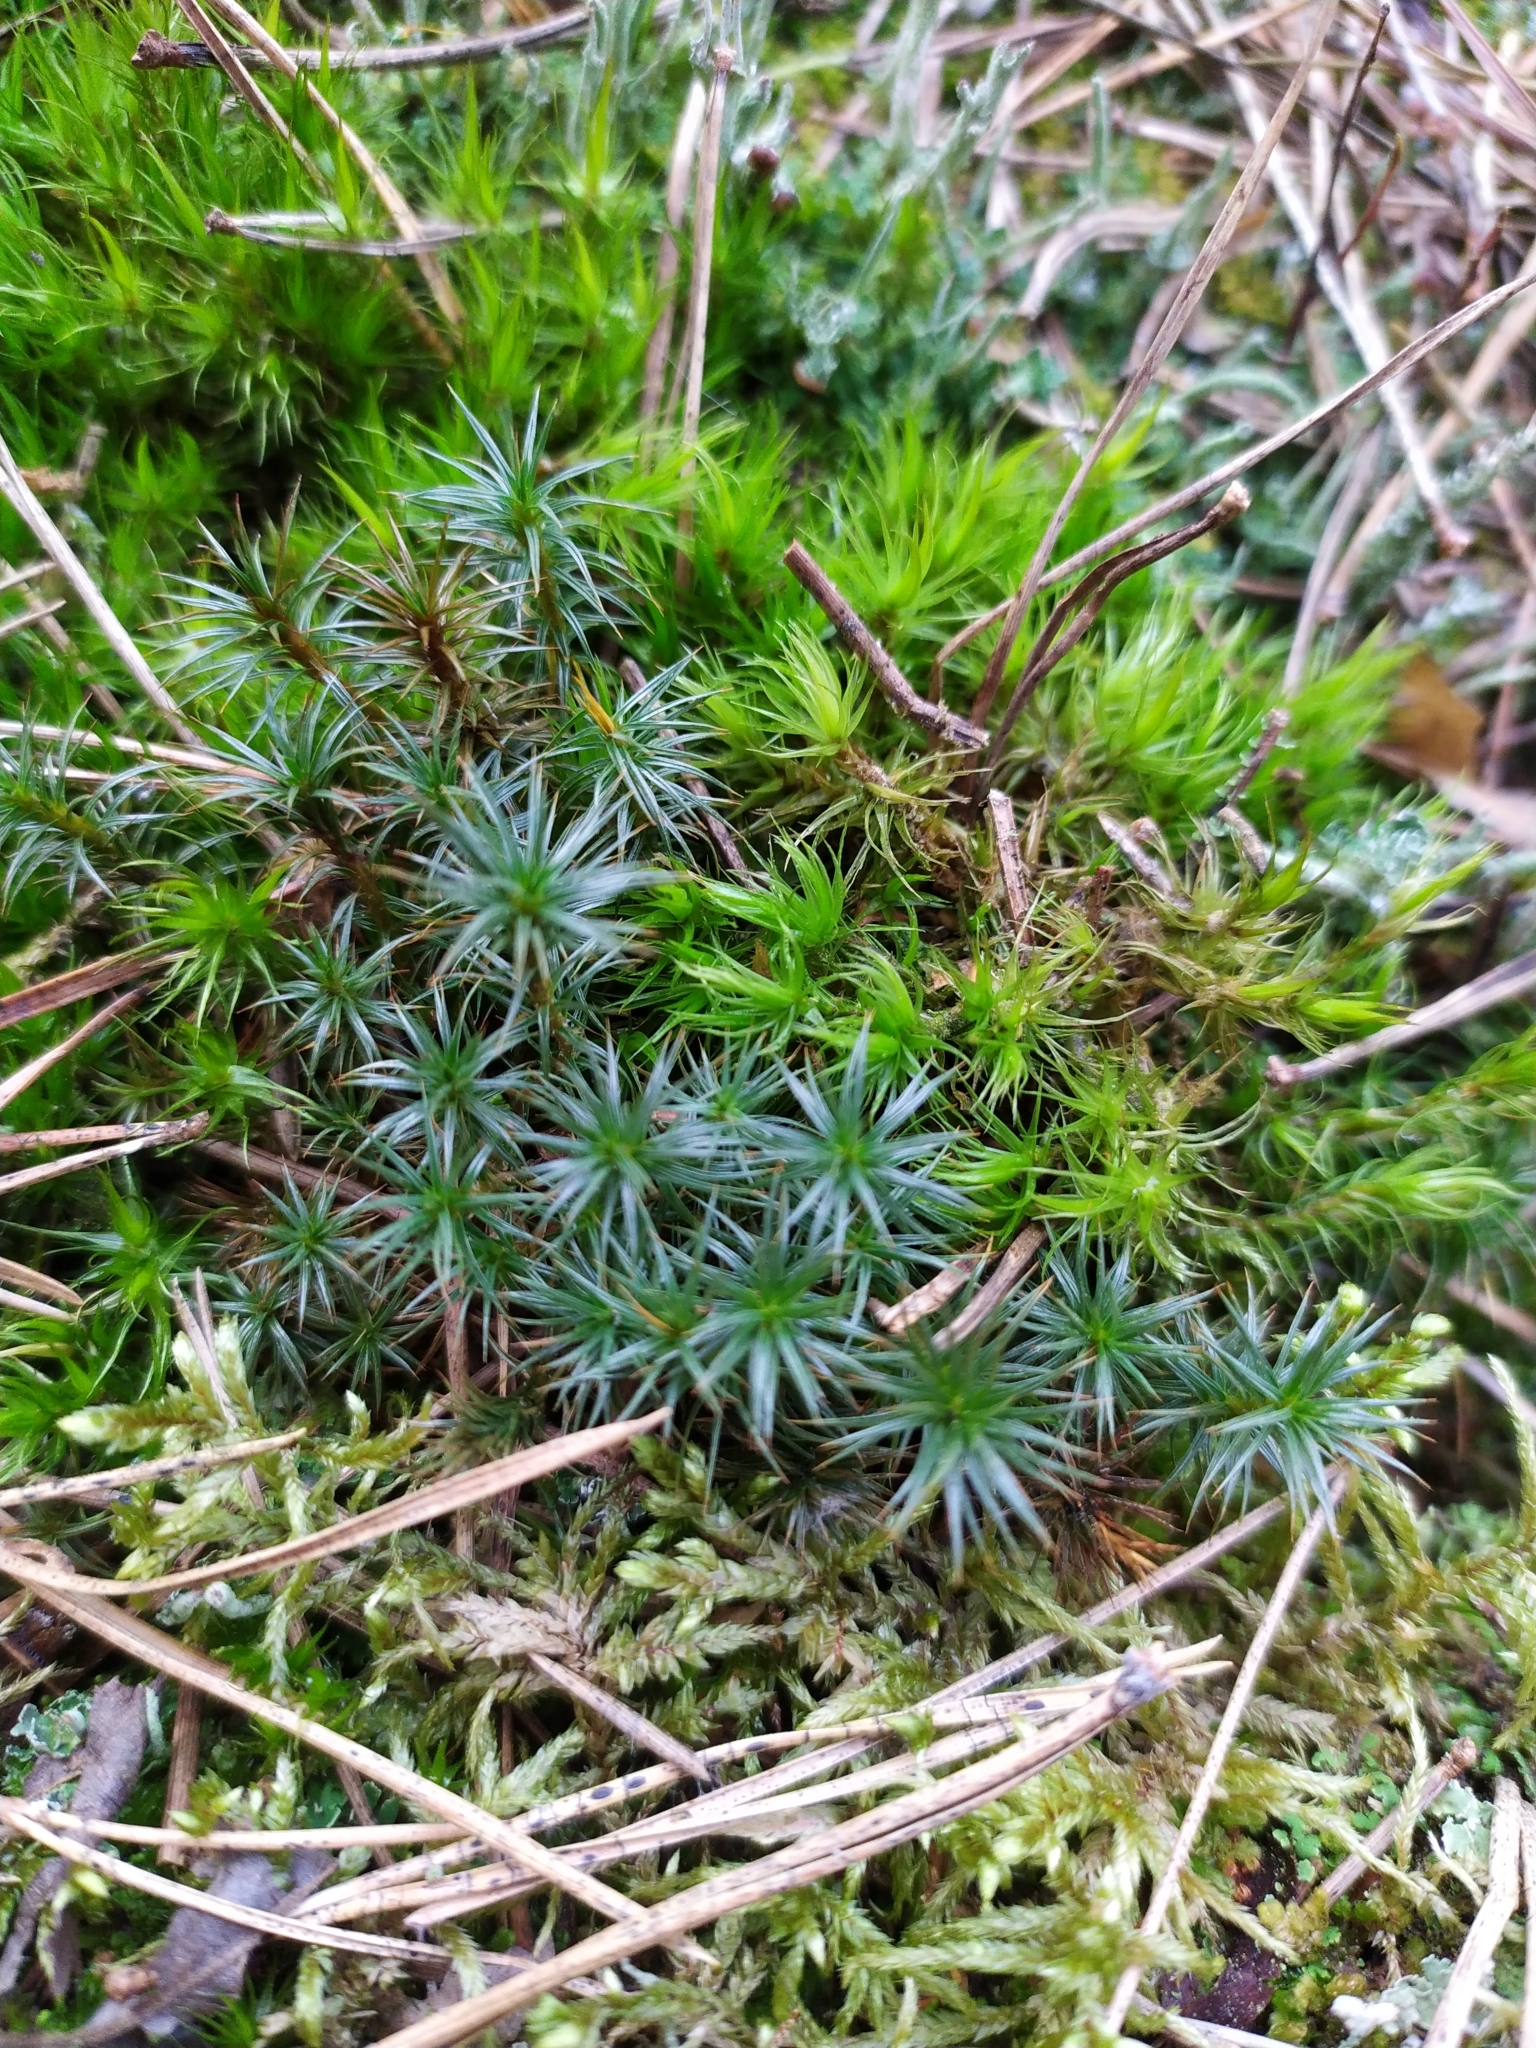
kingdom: Plantae
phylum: Bryophyta
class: Polytrichopsida
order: Polytrichales
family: Polytrichaceae
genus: Polytrichum
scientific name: Polytrichum juniperinum
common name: Juniper haircap moss
